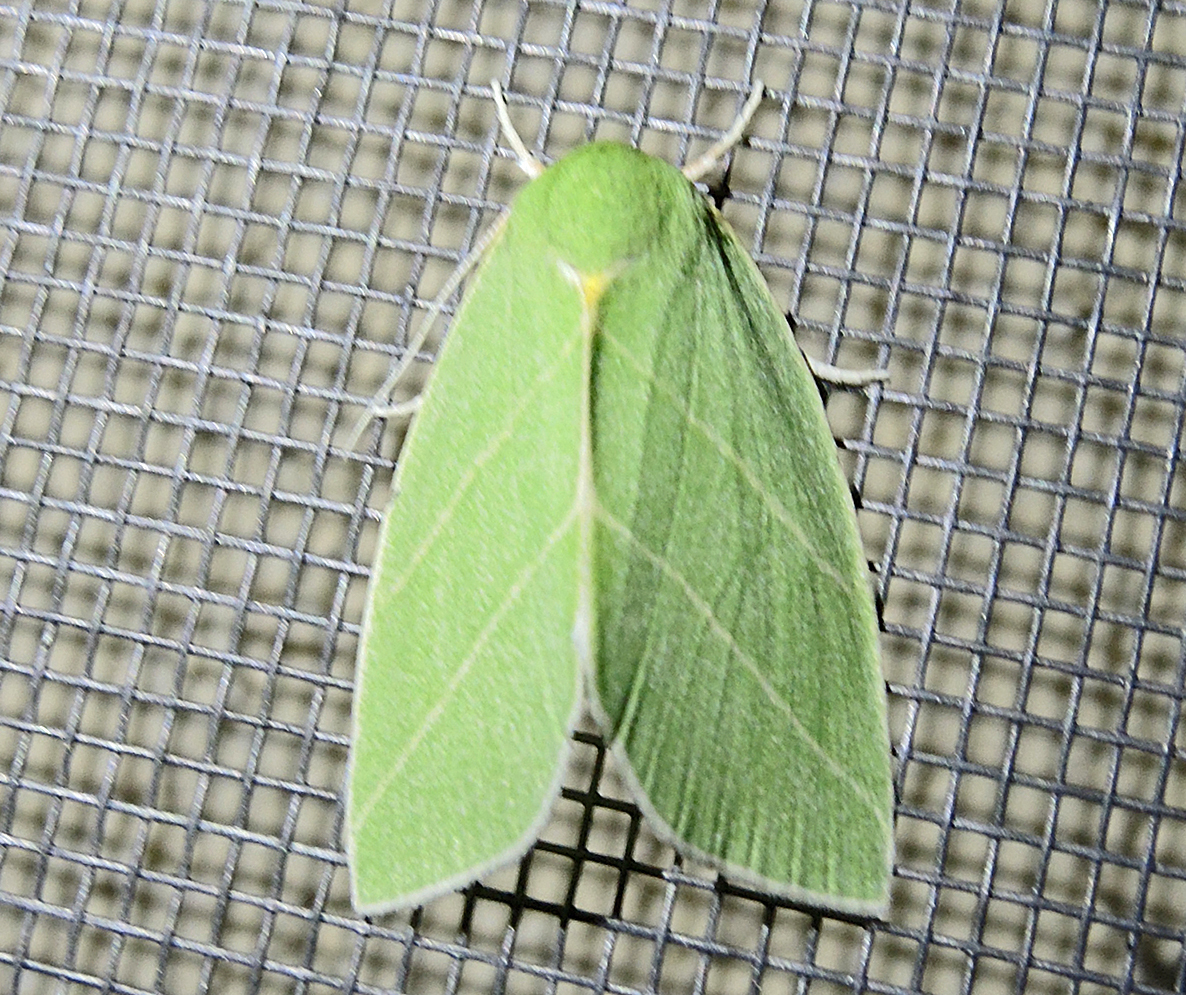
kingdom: Animalia
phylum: Arthropoda
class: Insecta
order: Lepidoptera
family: Nolidae
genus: Bena
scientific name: Bena bicolorana
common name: Scarce silver-lines
